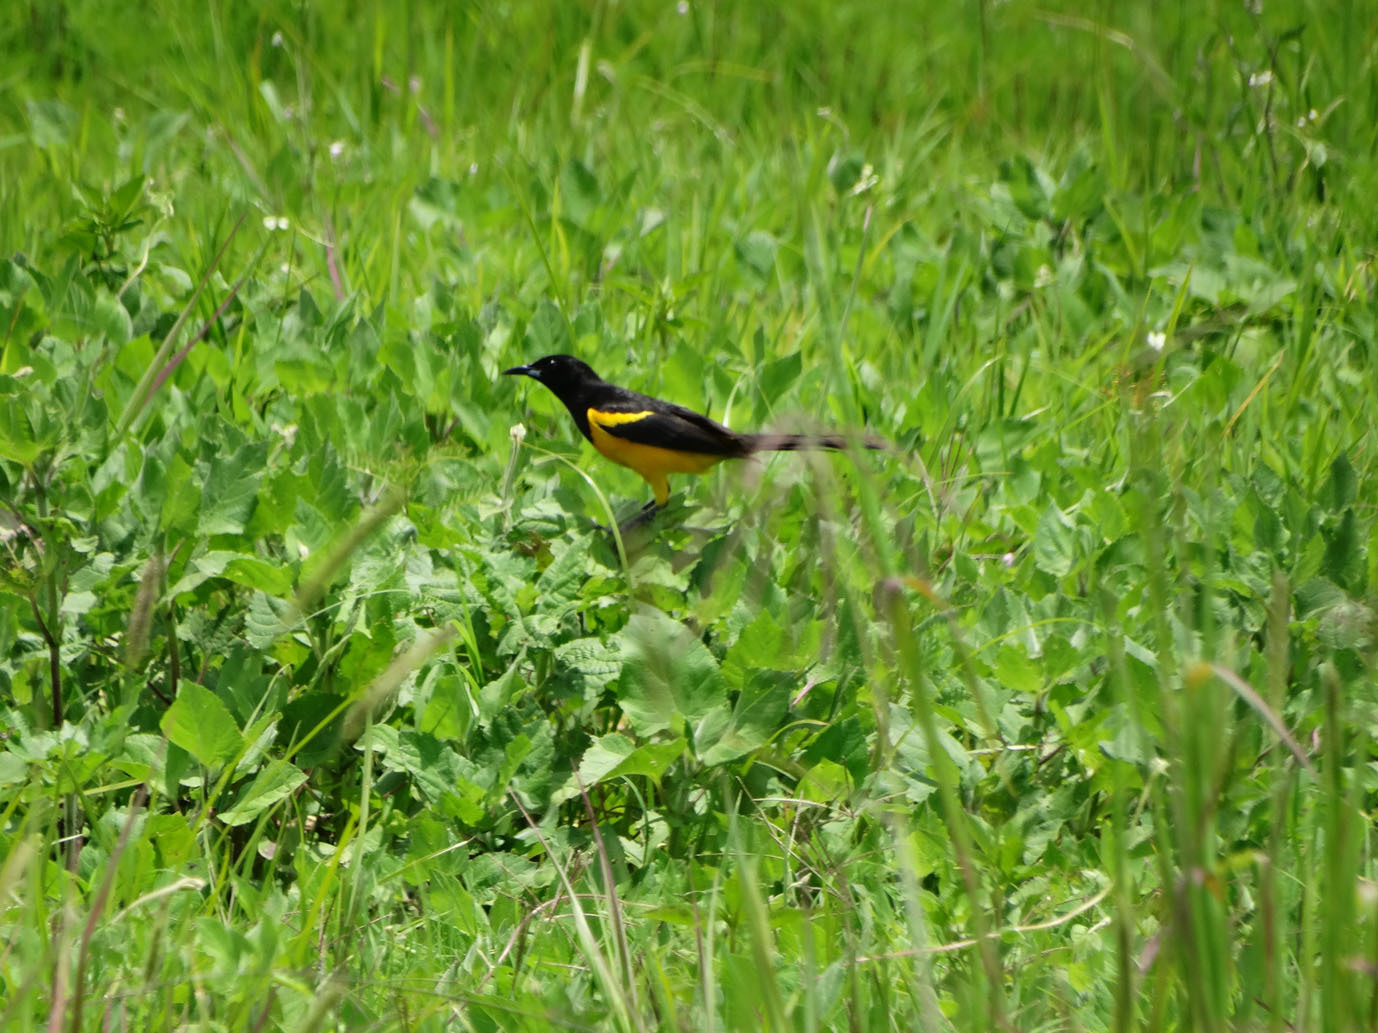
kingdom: Animalia
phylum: Chordata
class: Aves
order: Passeriformes
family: Icteridae
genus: Icterus
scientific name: Icterus wagleri
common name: Black-vented oriole
